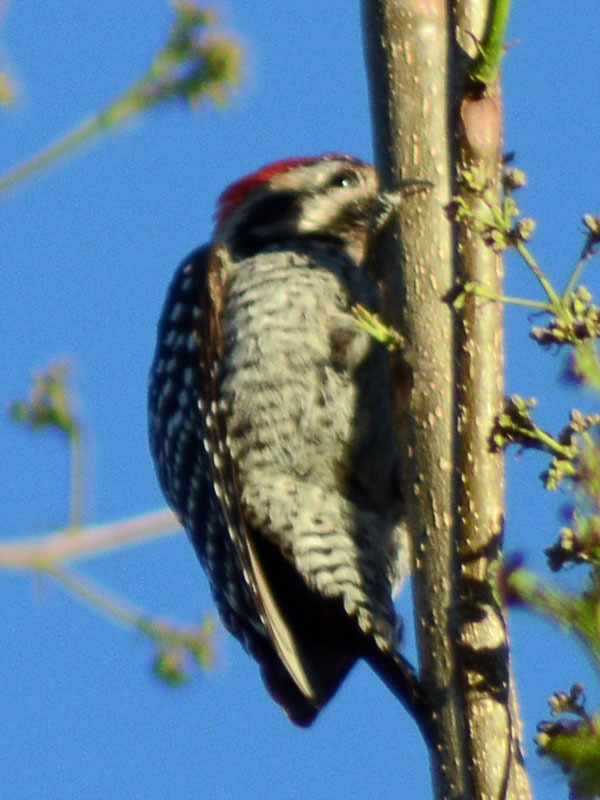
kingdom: Animalia
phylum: Chordata
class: Aves
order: Piciformes
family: Picidae
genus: Dryobates
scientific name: Dryobates scalaris
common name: Ladder-backed woodpecker
